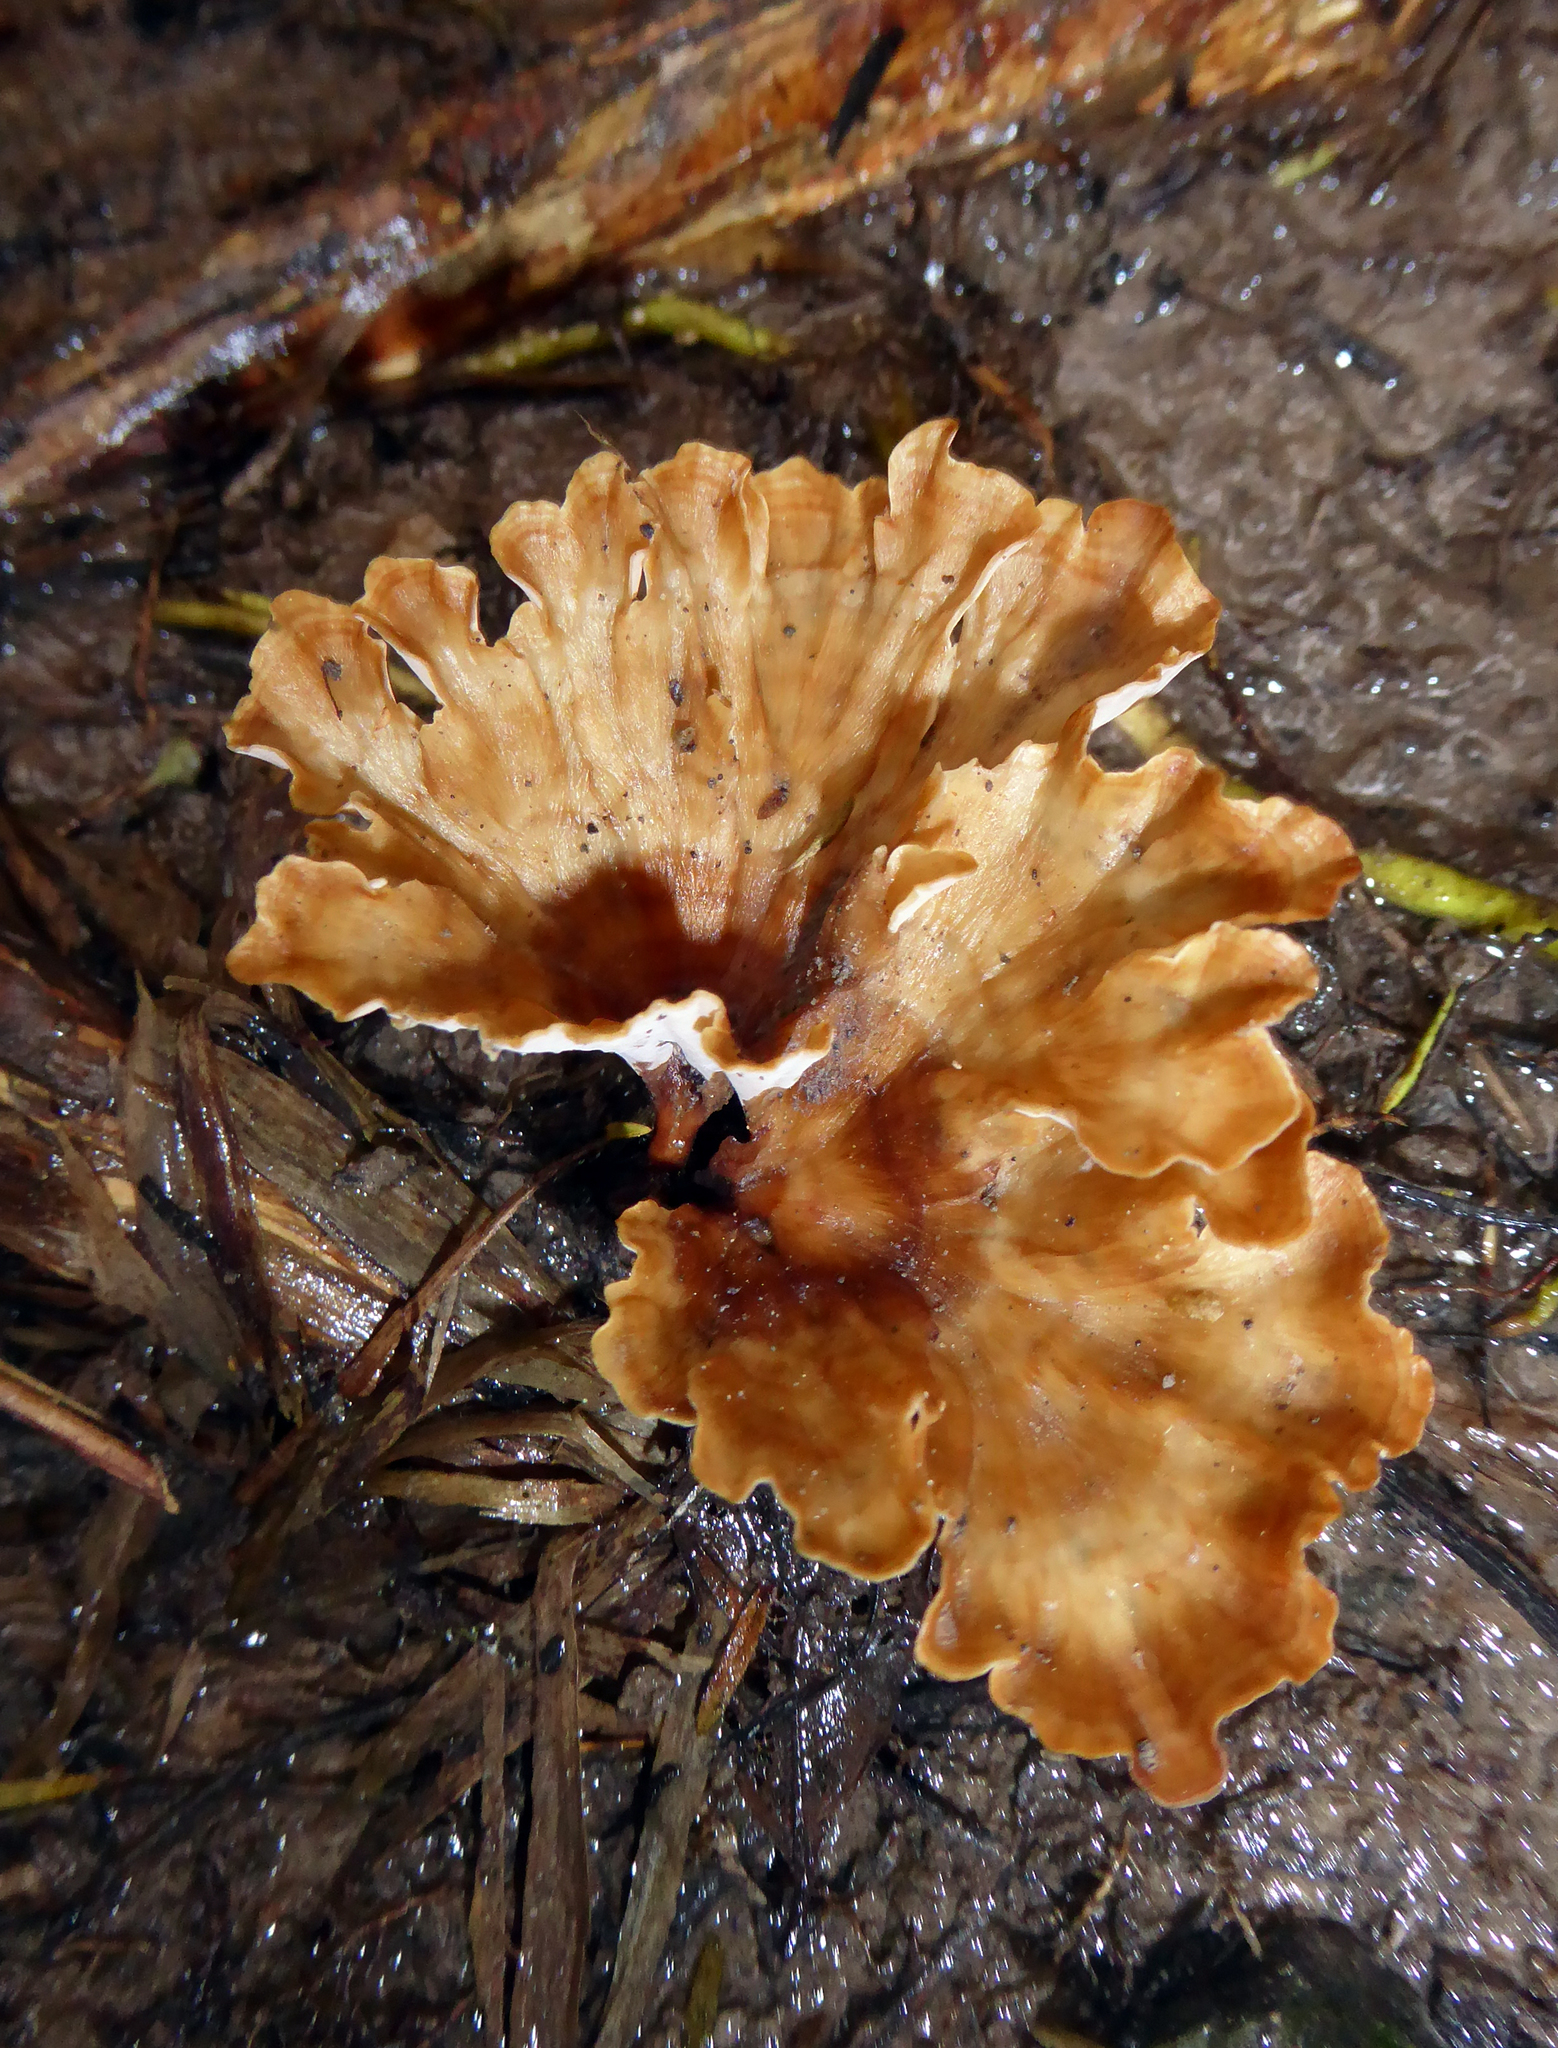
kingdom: Fungi
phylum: Basidiomycota
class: Agaricomycetes
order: Polyporales
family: Podoscyphaceae
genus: Podoscypha
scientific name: Podoscypha petalodes
